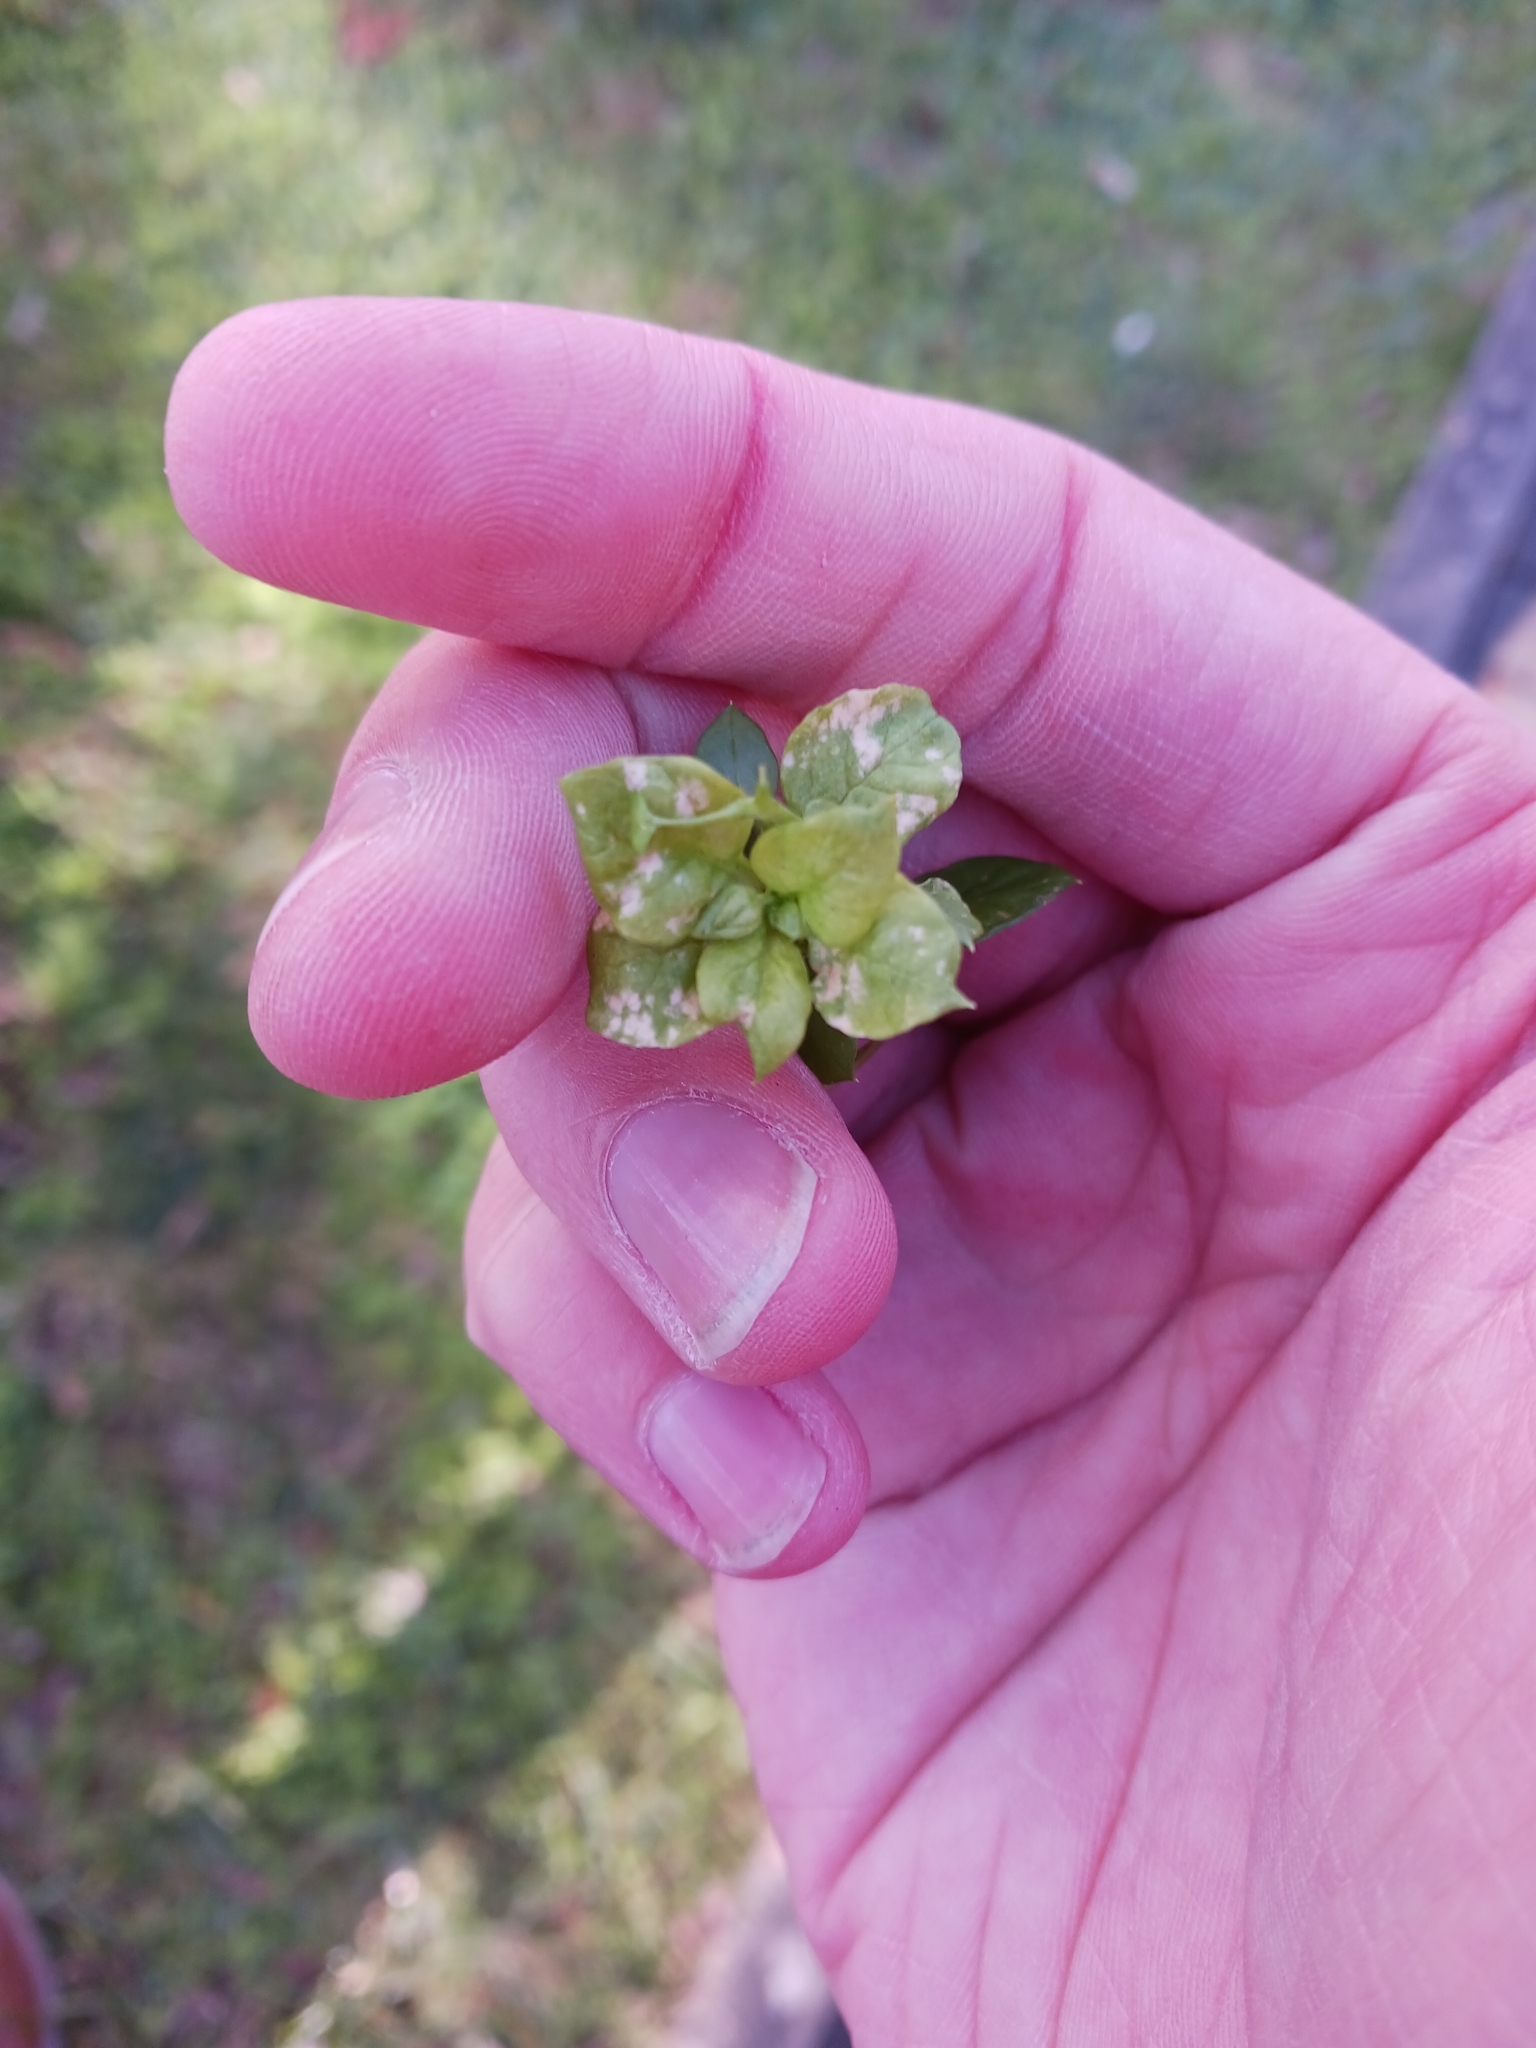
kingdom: Chromista
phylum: Oomycota
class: Peronosporea
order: Peronosporales
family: Peronosporaceae
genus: Peronospora
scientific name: Peronospora alsinearum
